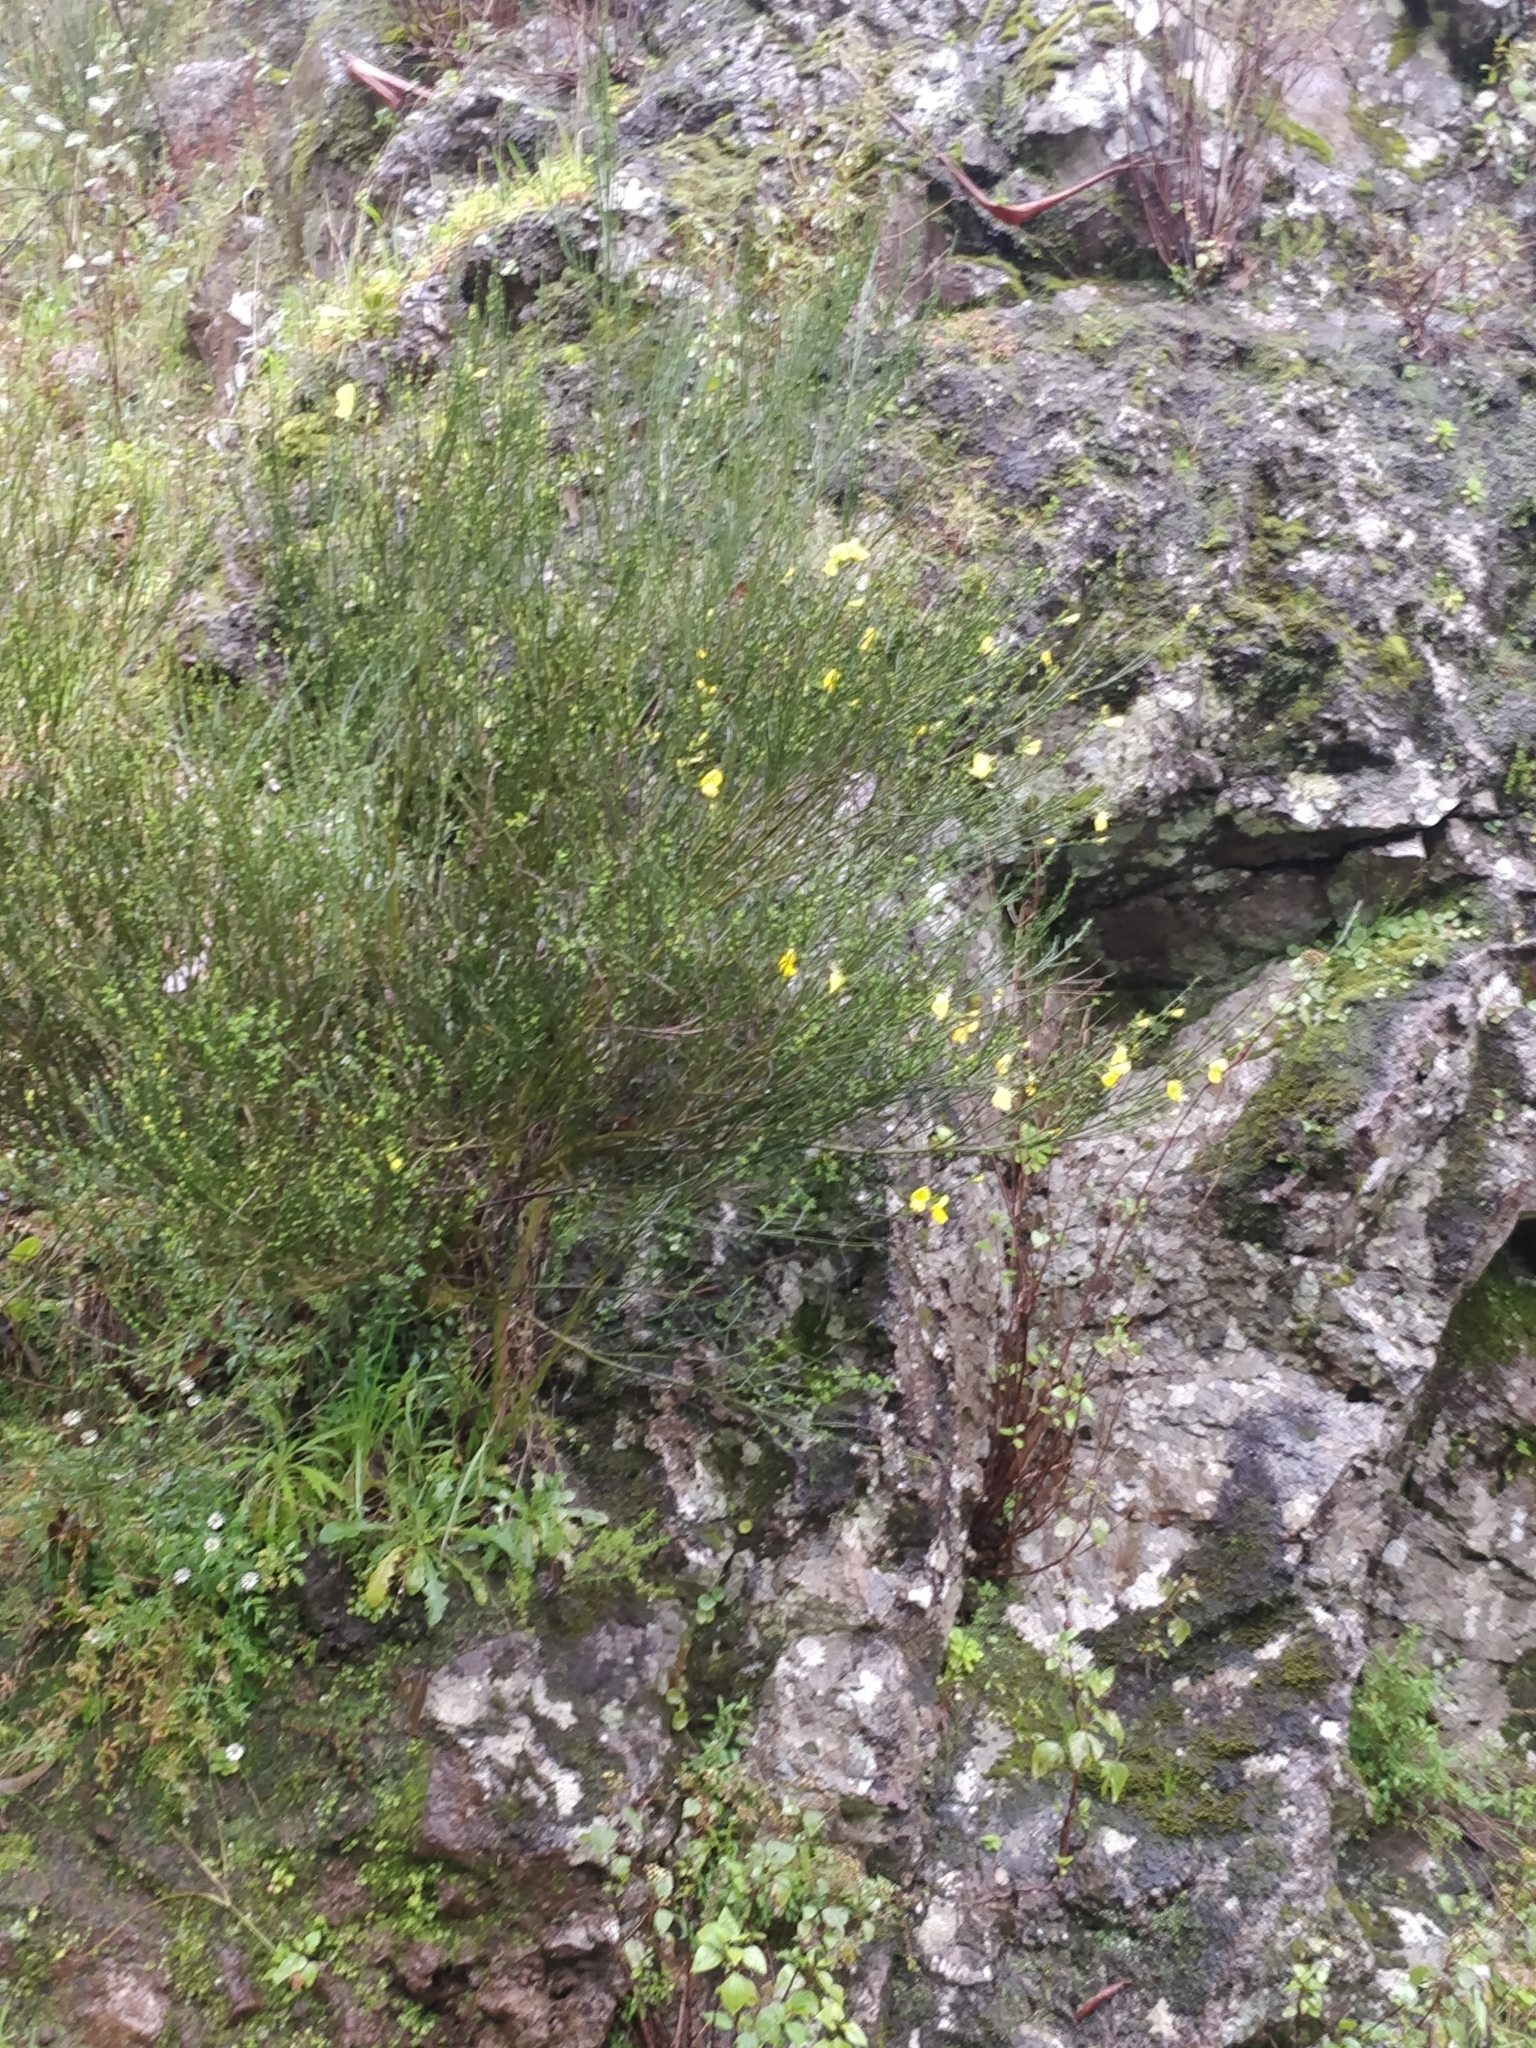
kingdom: Plantae
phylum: Tracheophyta
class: Magnoliopsida
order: Fabales
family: Fabaceae
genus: Cytisus
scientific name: Cytisus scoparius
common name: Scotch broom
